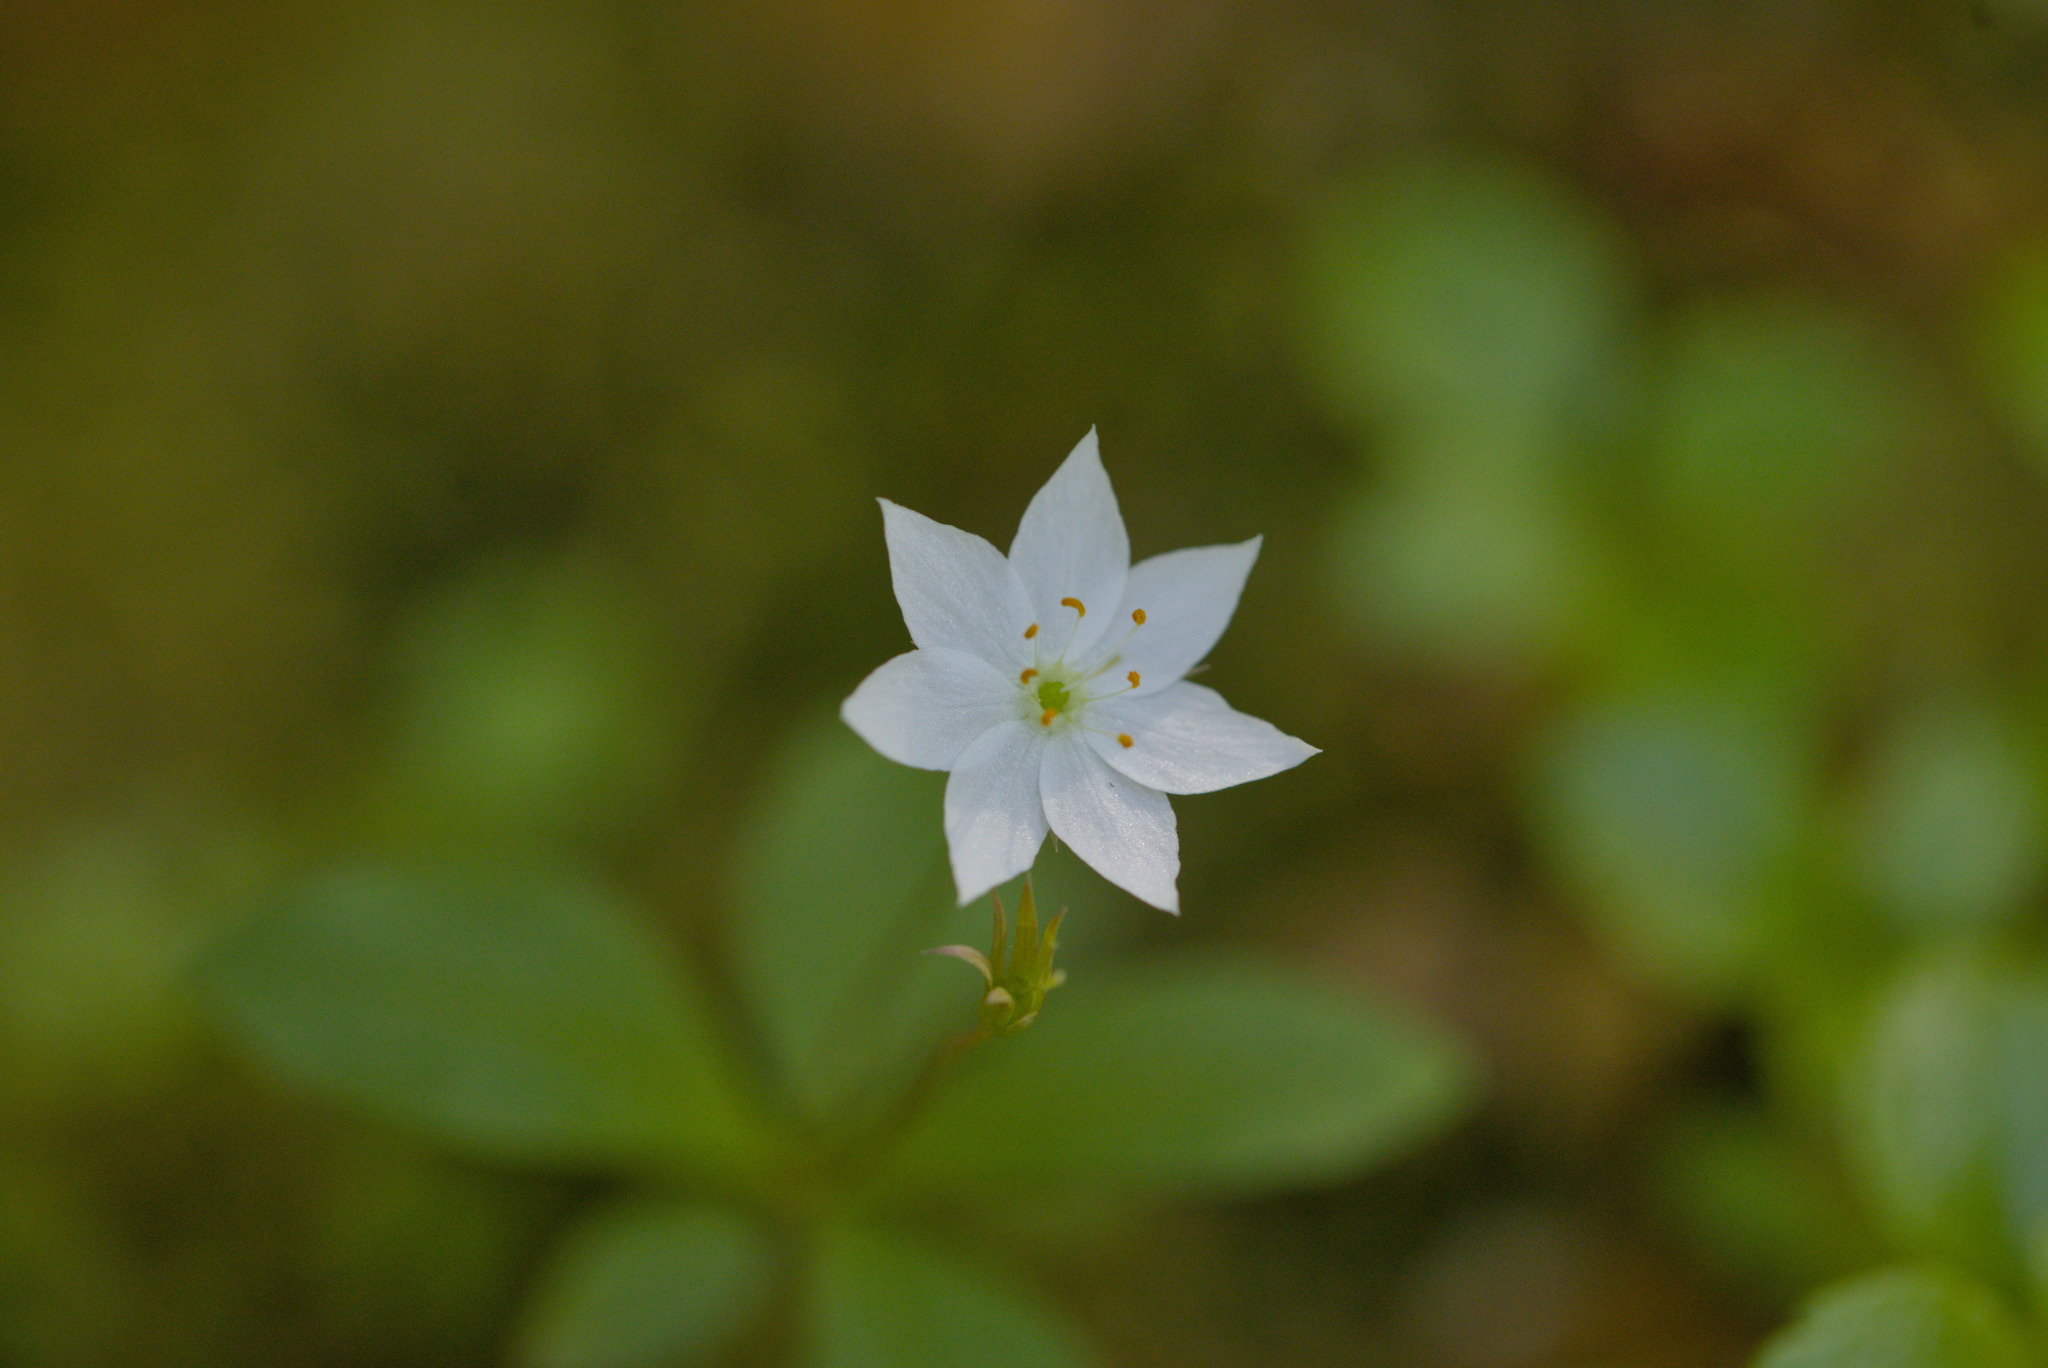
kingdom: Plantae
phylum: Tracheophyta
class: Magnoliopsida
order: Ericales
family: Primulaceae
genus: Lysimachia
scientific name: Lysimachia europaea
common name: Arctic starflower
